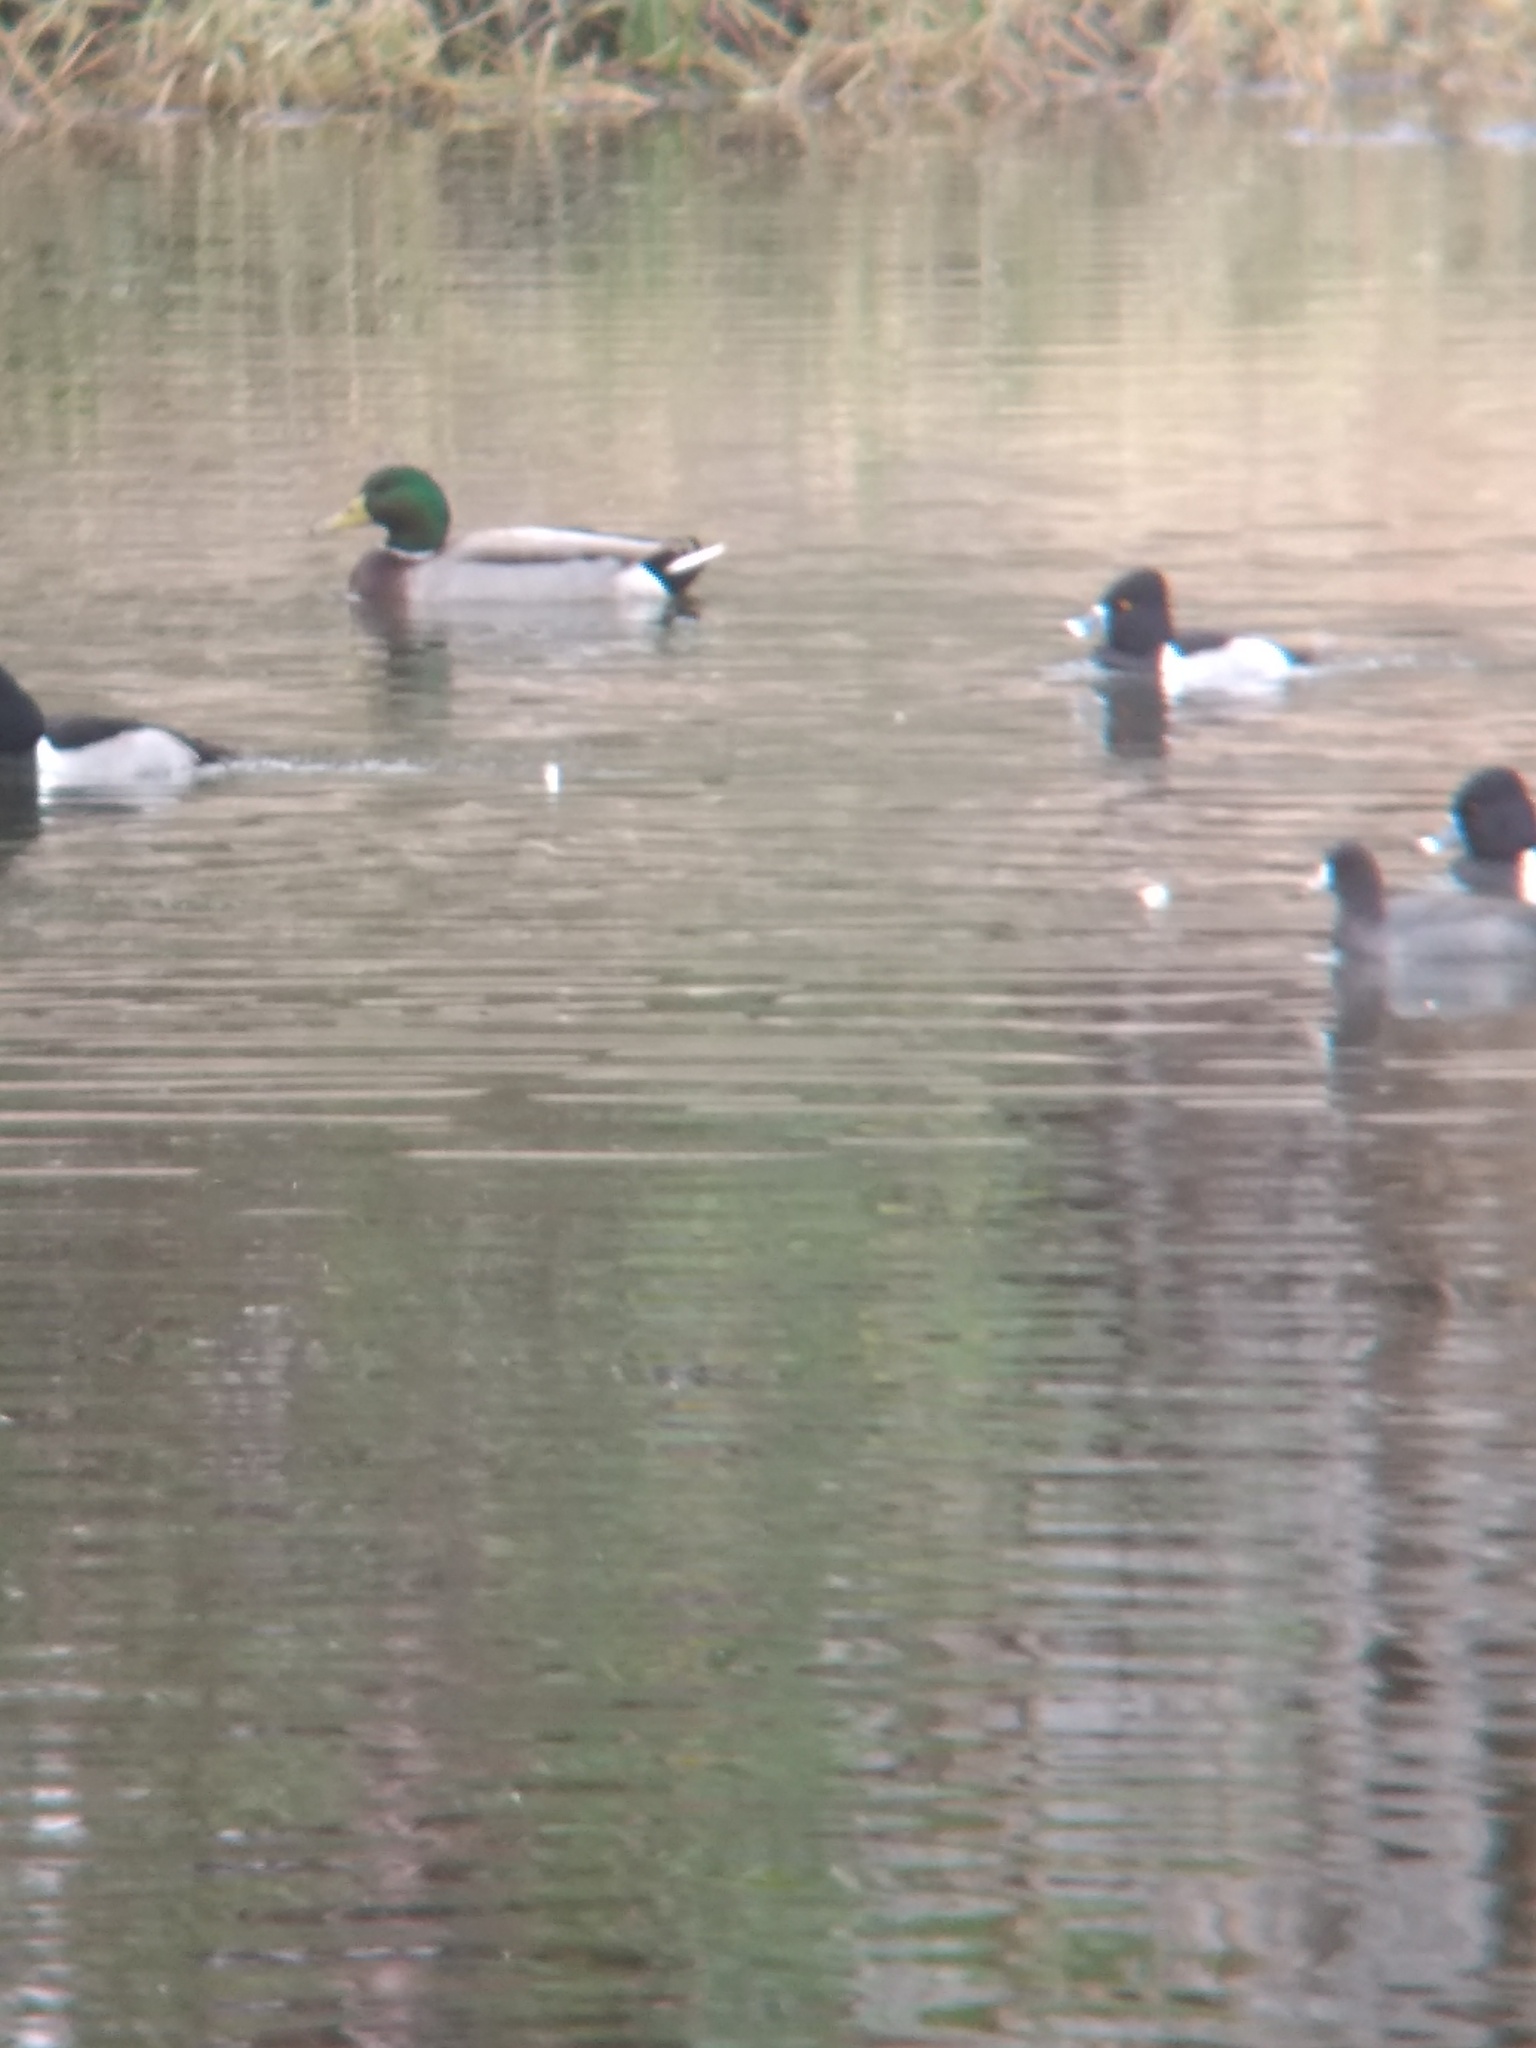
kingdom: Animalia
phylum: Chordata
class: Aves
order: Anseriformes
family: Anatidae
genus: Anas
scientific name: Anas platyrhynchos
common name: Mallard
